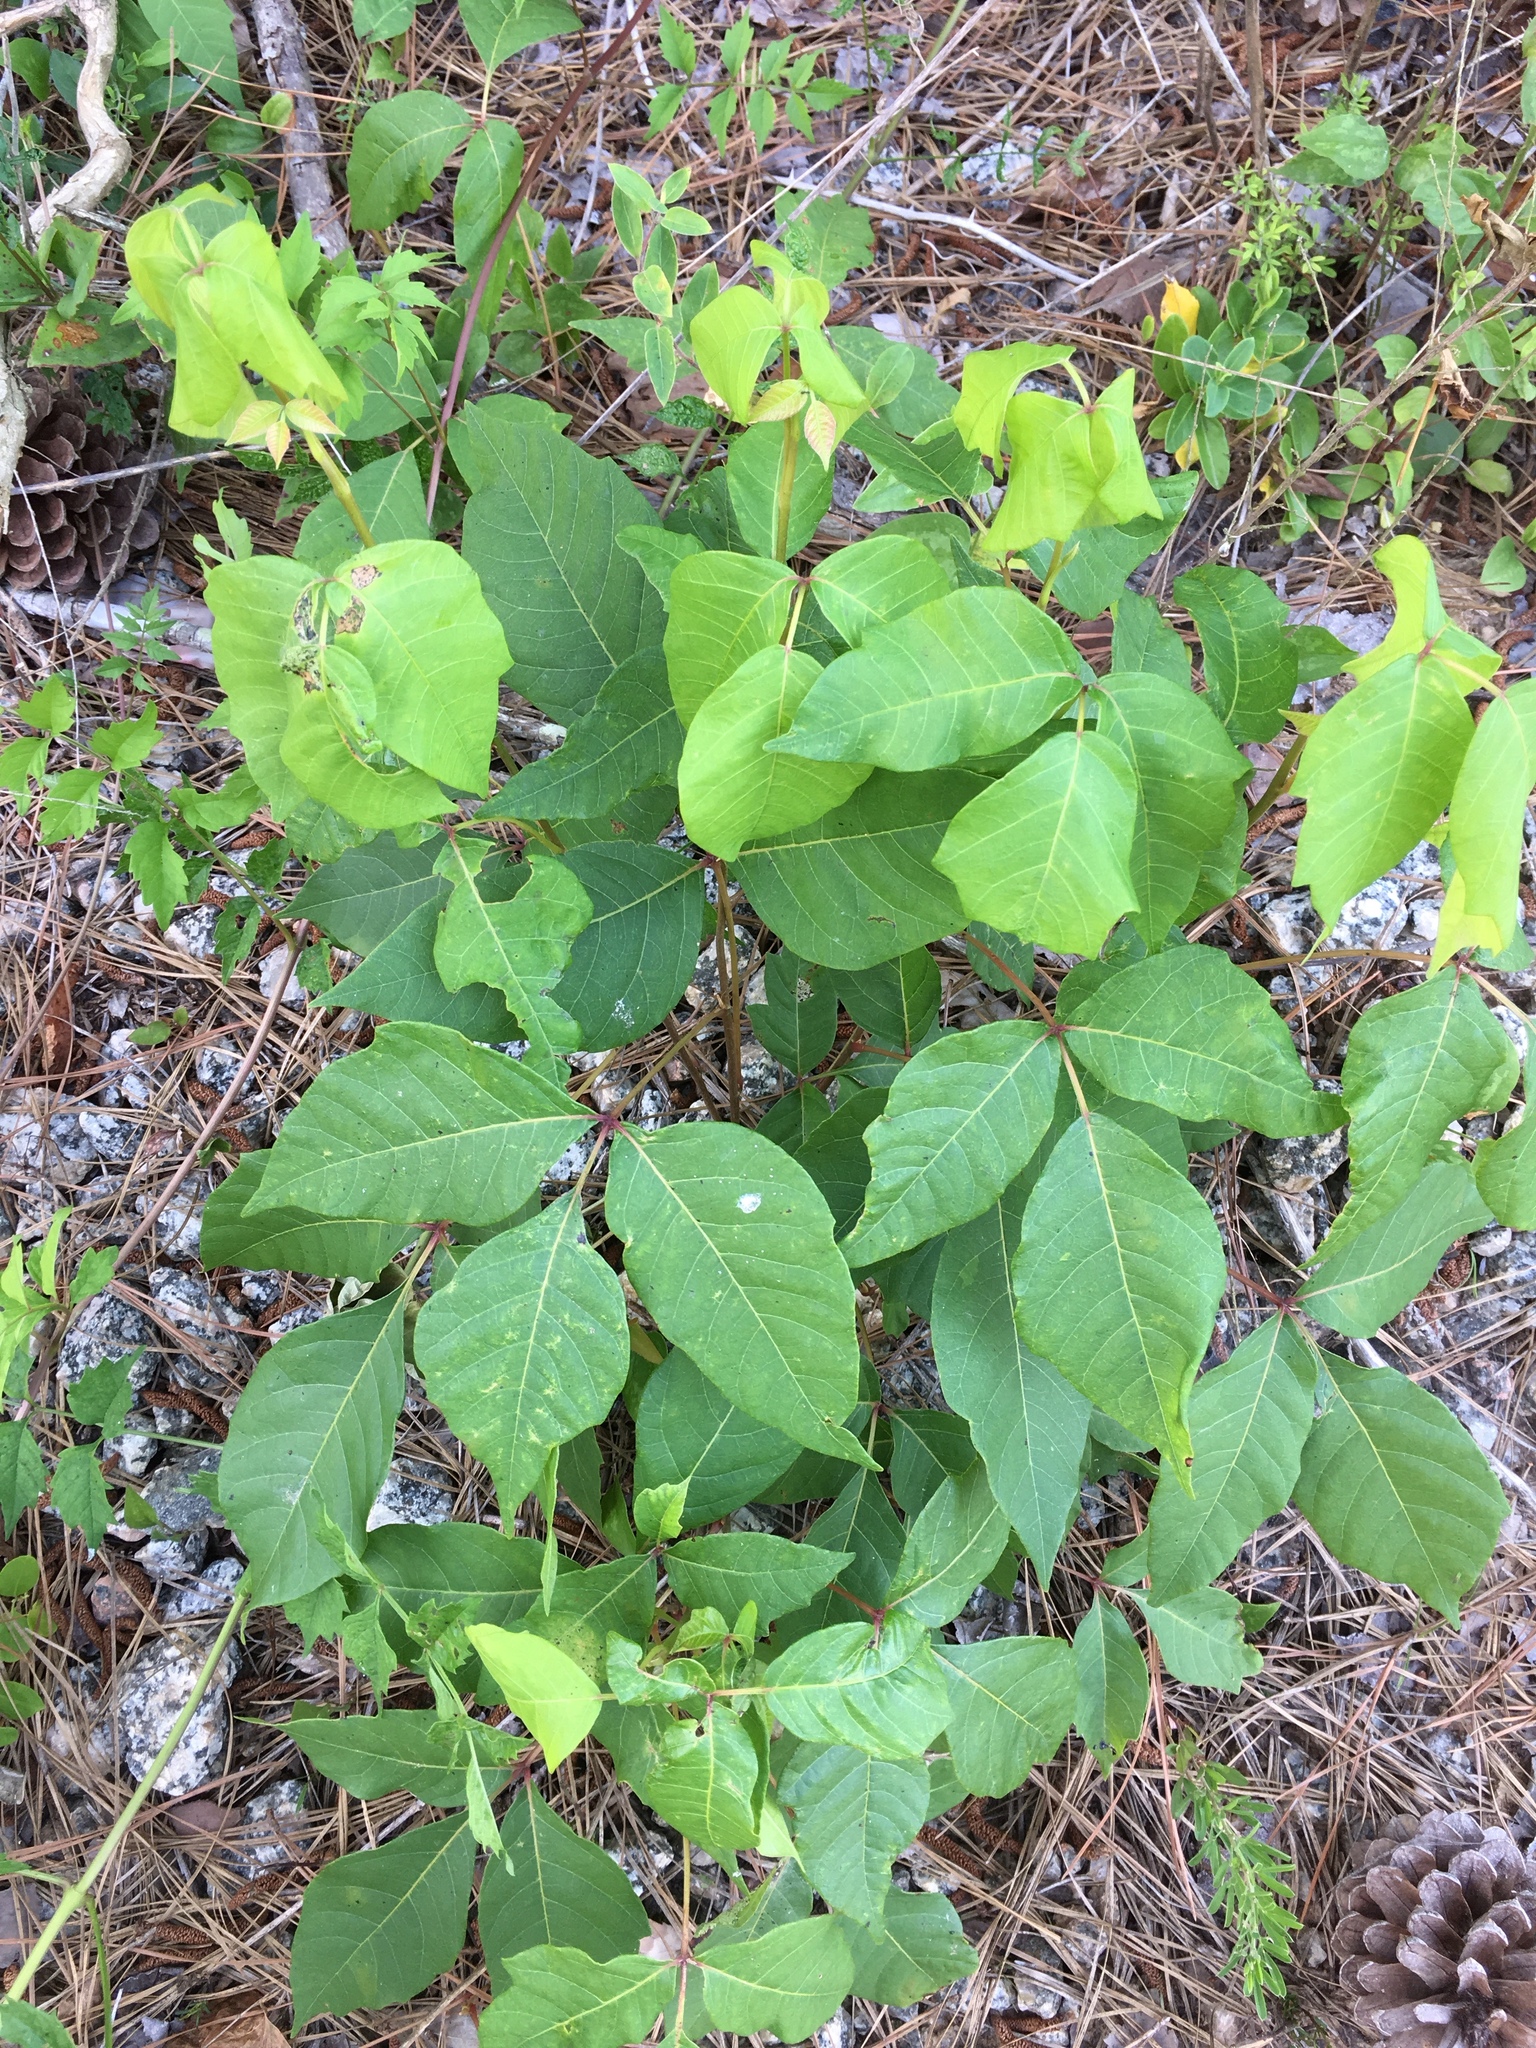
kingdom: Plantae
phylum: Tracheophyta
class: Magnoliopsida
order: Sapindales
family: Anacardiaceae
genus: Toxicodendron
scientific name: Toxicodendron radicans
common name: Poison ivy
